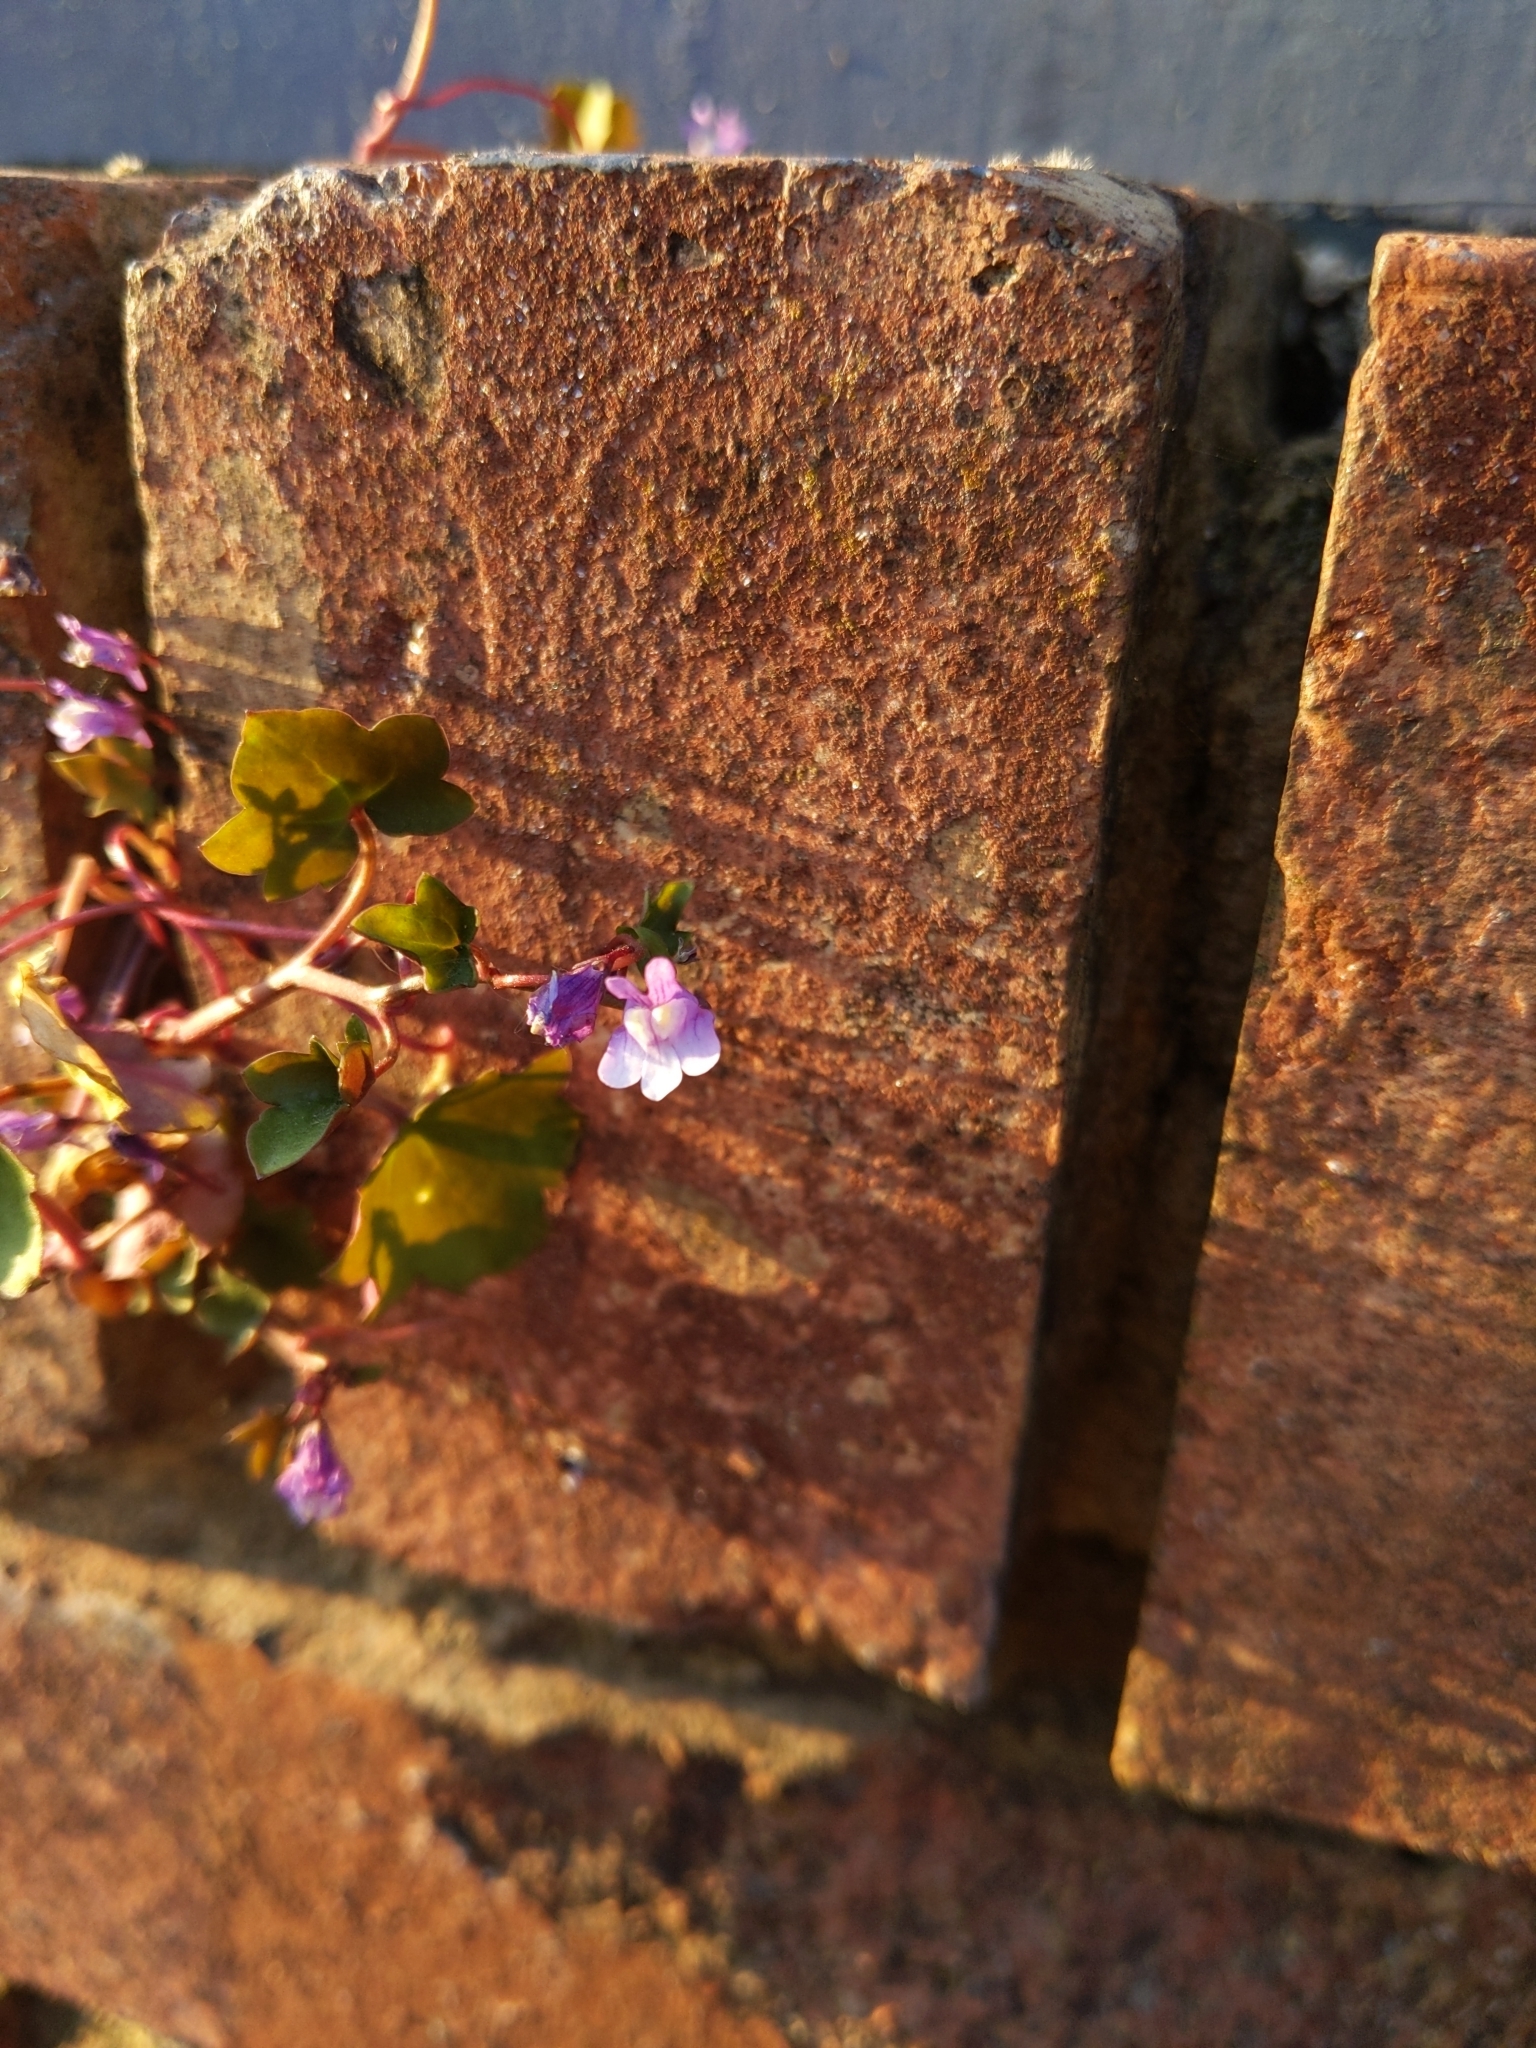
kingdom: Plantae
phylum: Tracheophyta
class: Magnoliopsida
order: Lamiales
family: Plantaginaceae
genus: Cymbalaria
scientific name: Cymbalaria muralis
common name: Ivy-leaved toadflax
